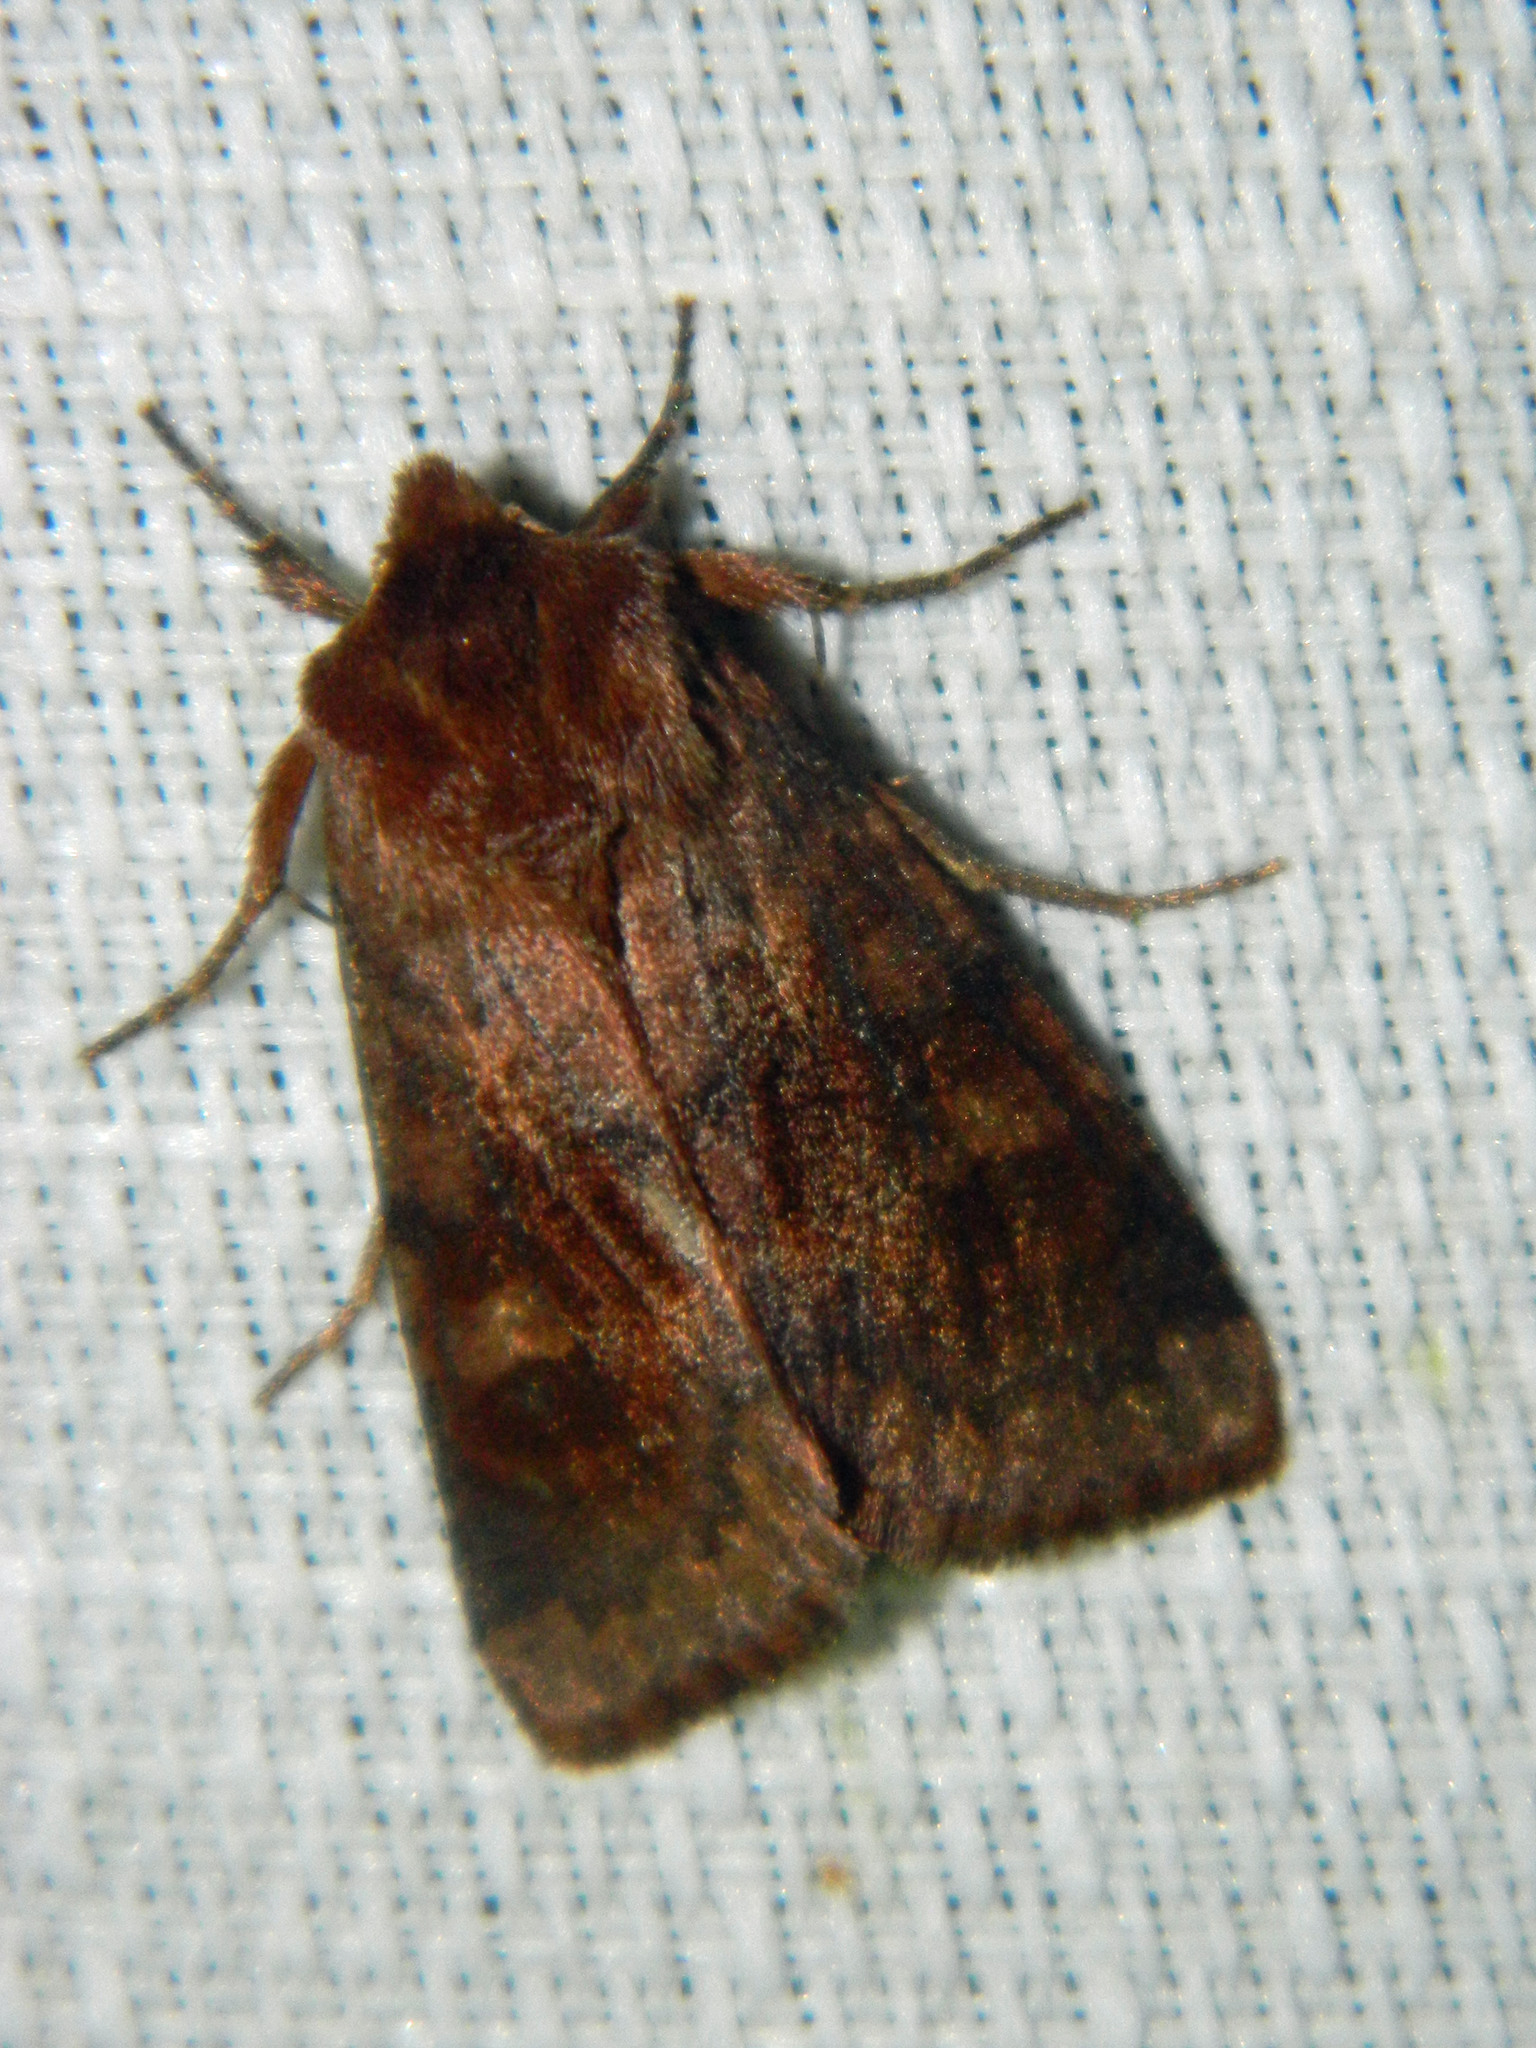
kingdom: Animalia
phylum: Arthropoda
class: Insecta
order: Lepidoptera
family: Noctuidae
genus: Nephelodes
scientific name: Nephelodes minians
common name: Bronzed cutworm
